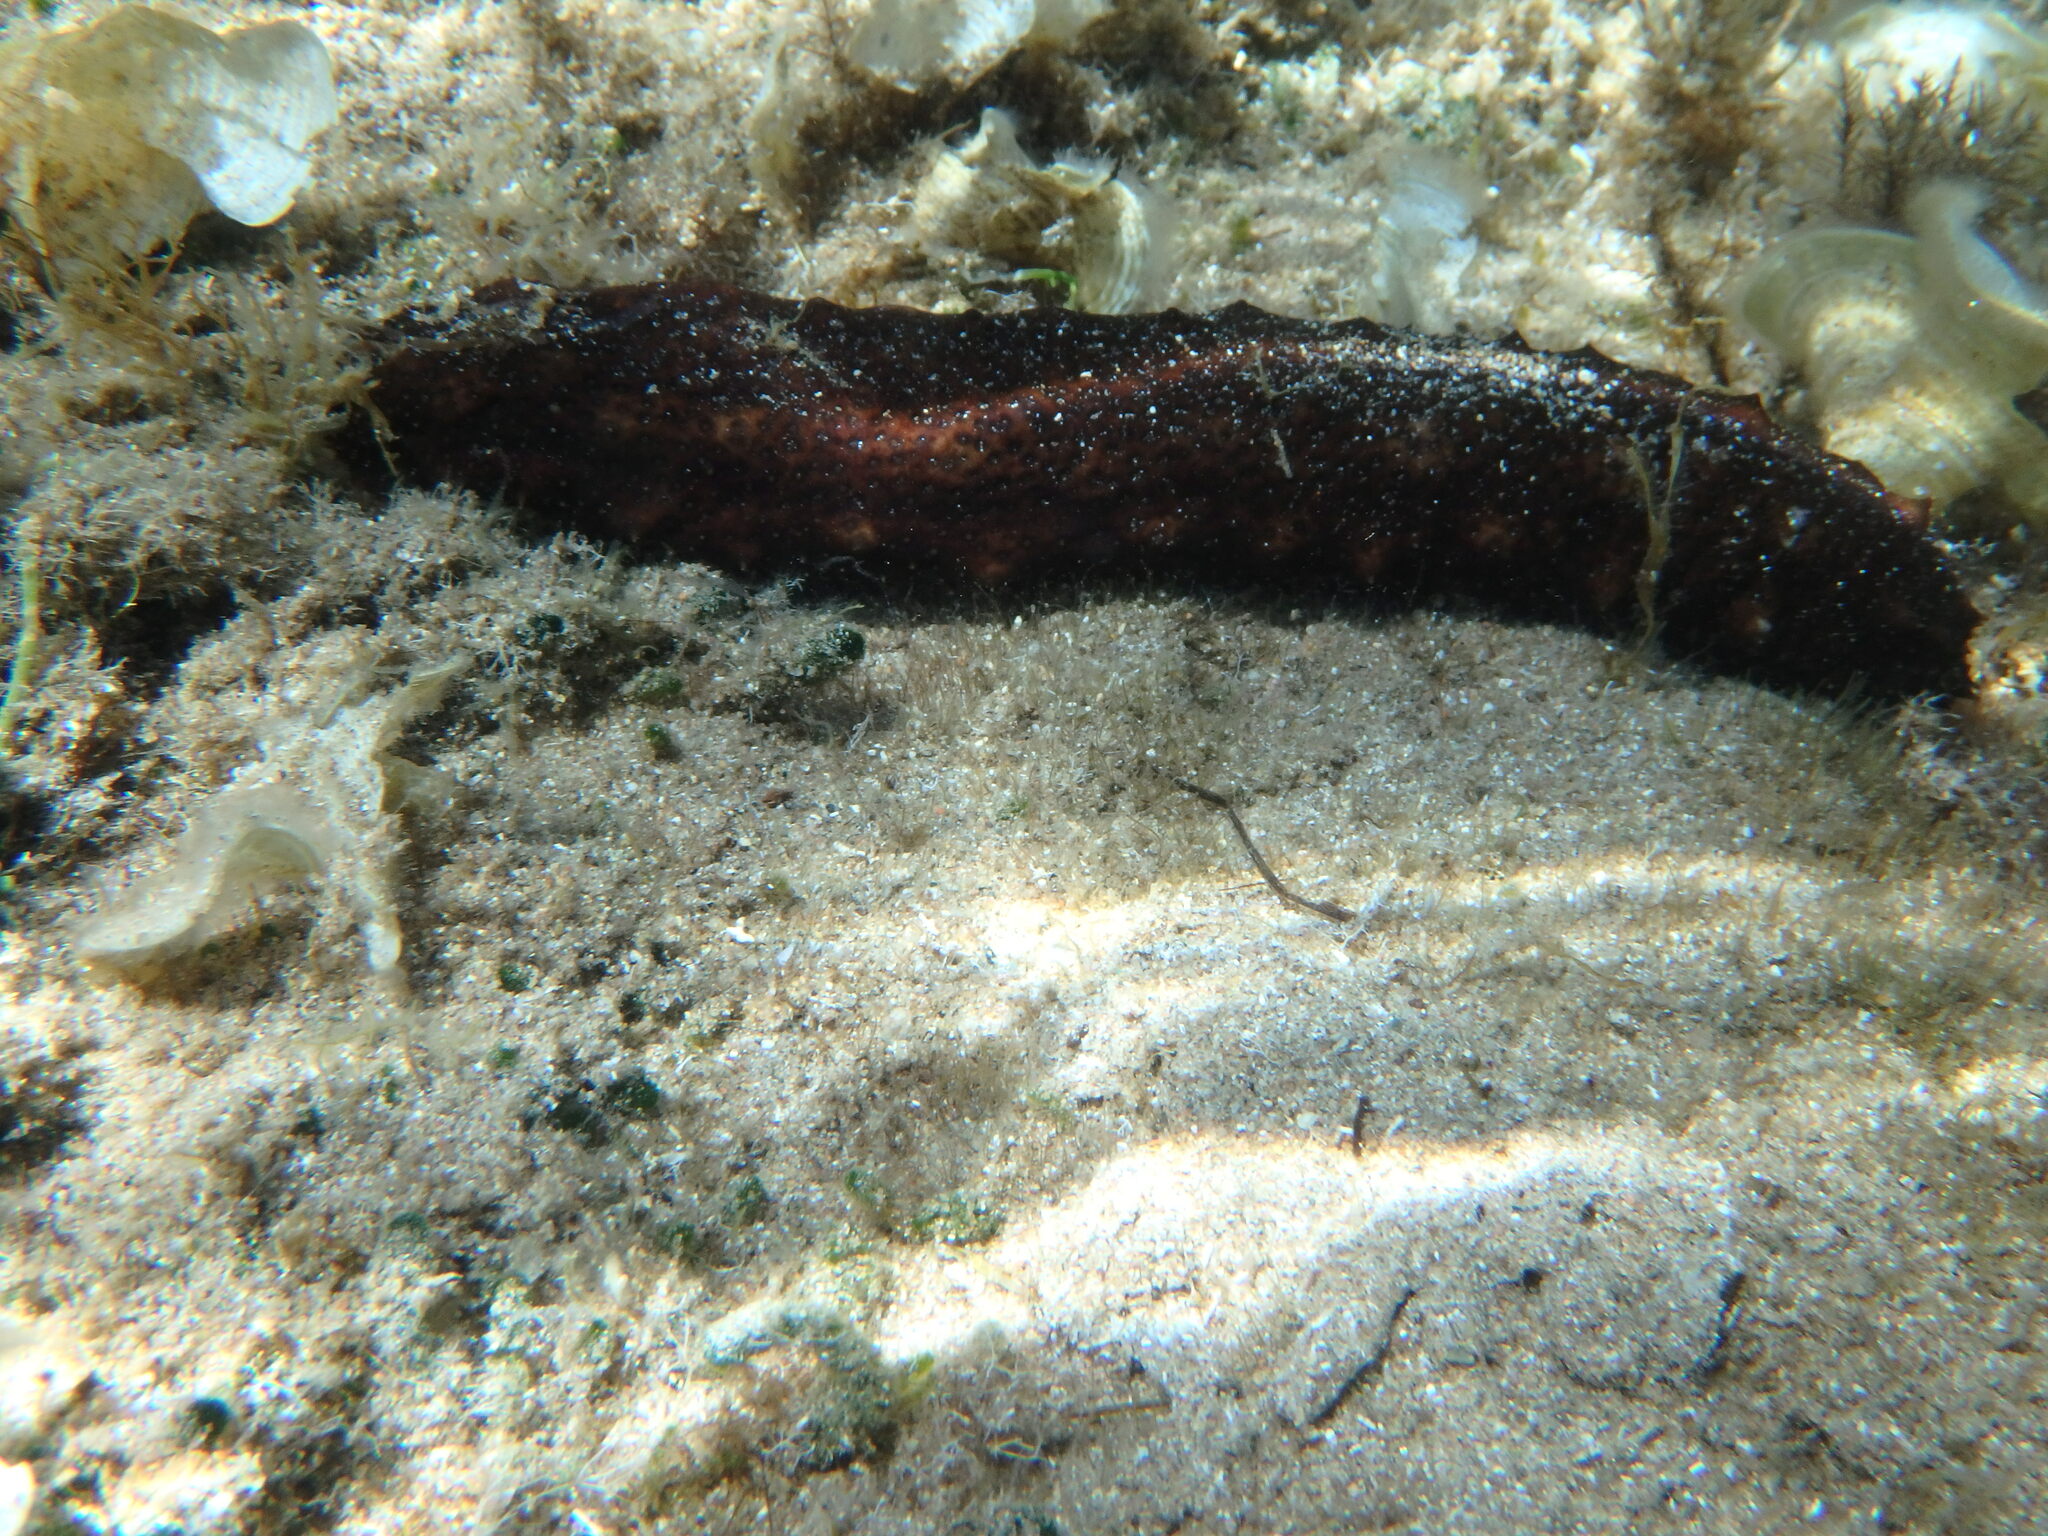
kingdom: Animalia
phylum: Echinodermata
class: Holothuroidea
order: Holothuriida
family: Holothuriidae
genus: Holothuria
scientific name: Holothuria poli
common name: White spot cucumber
